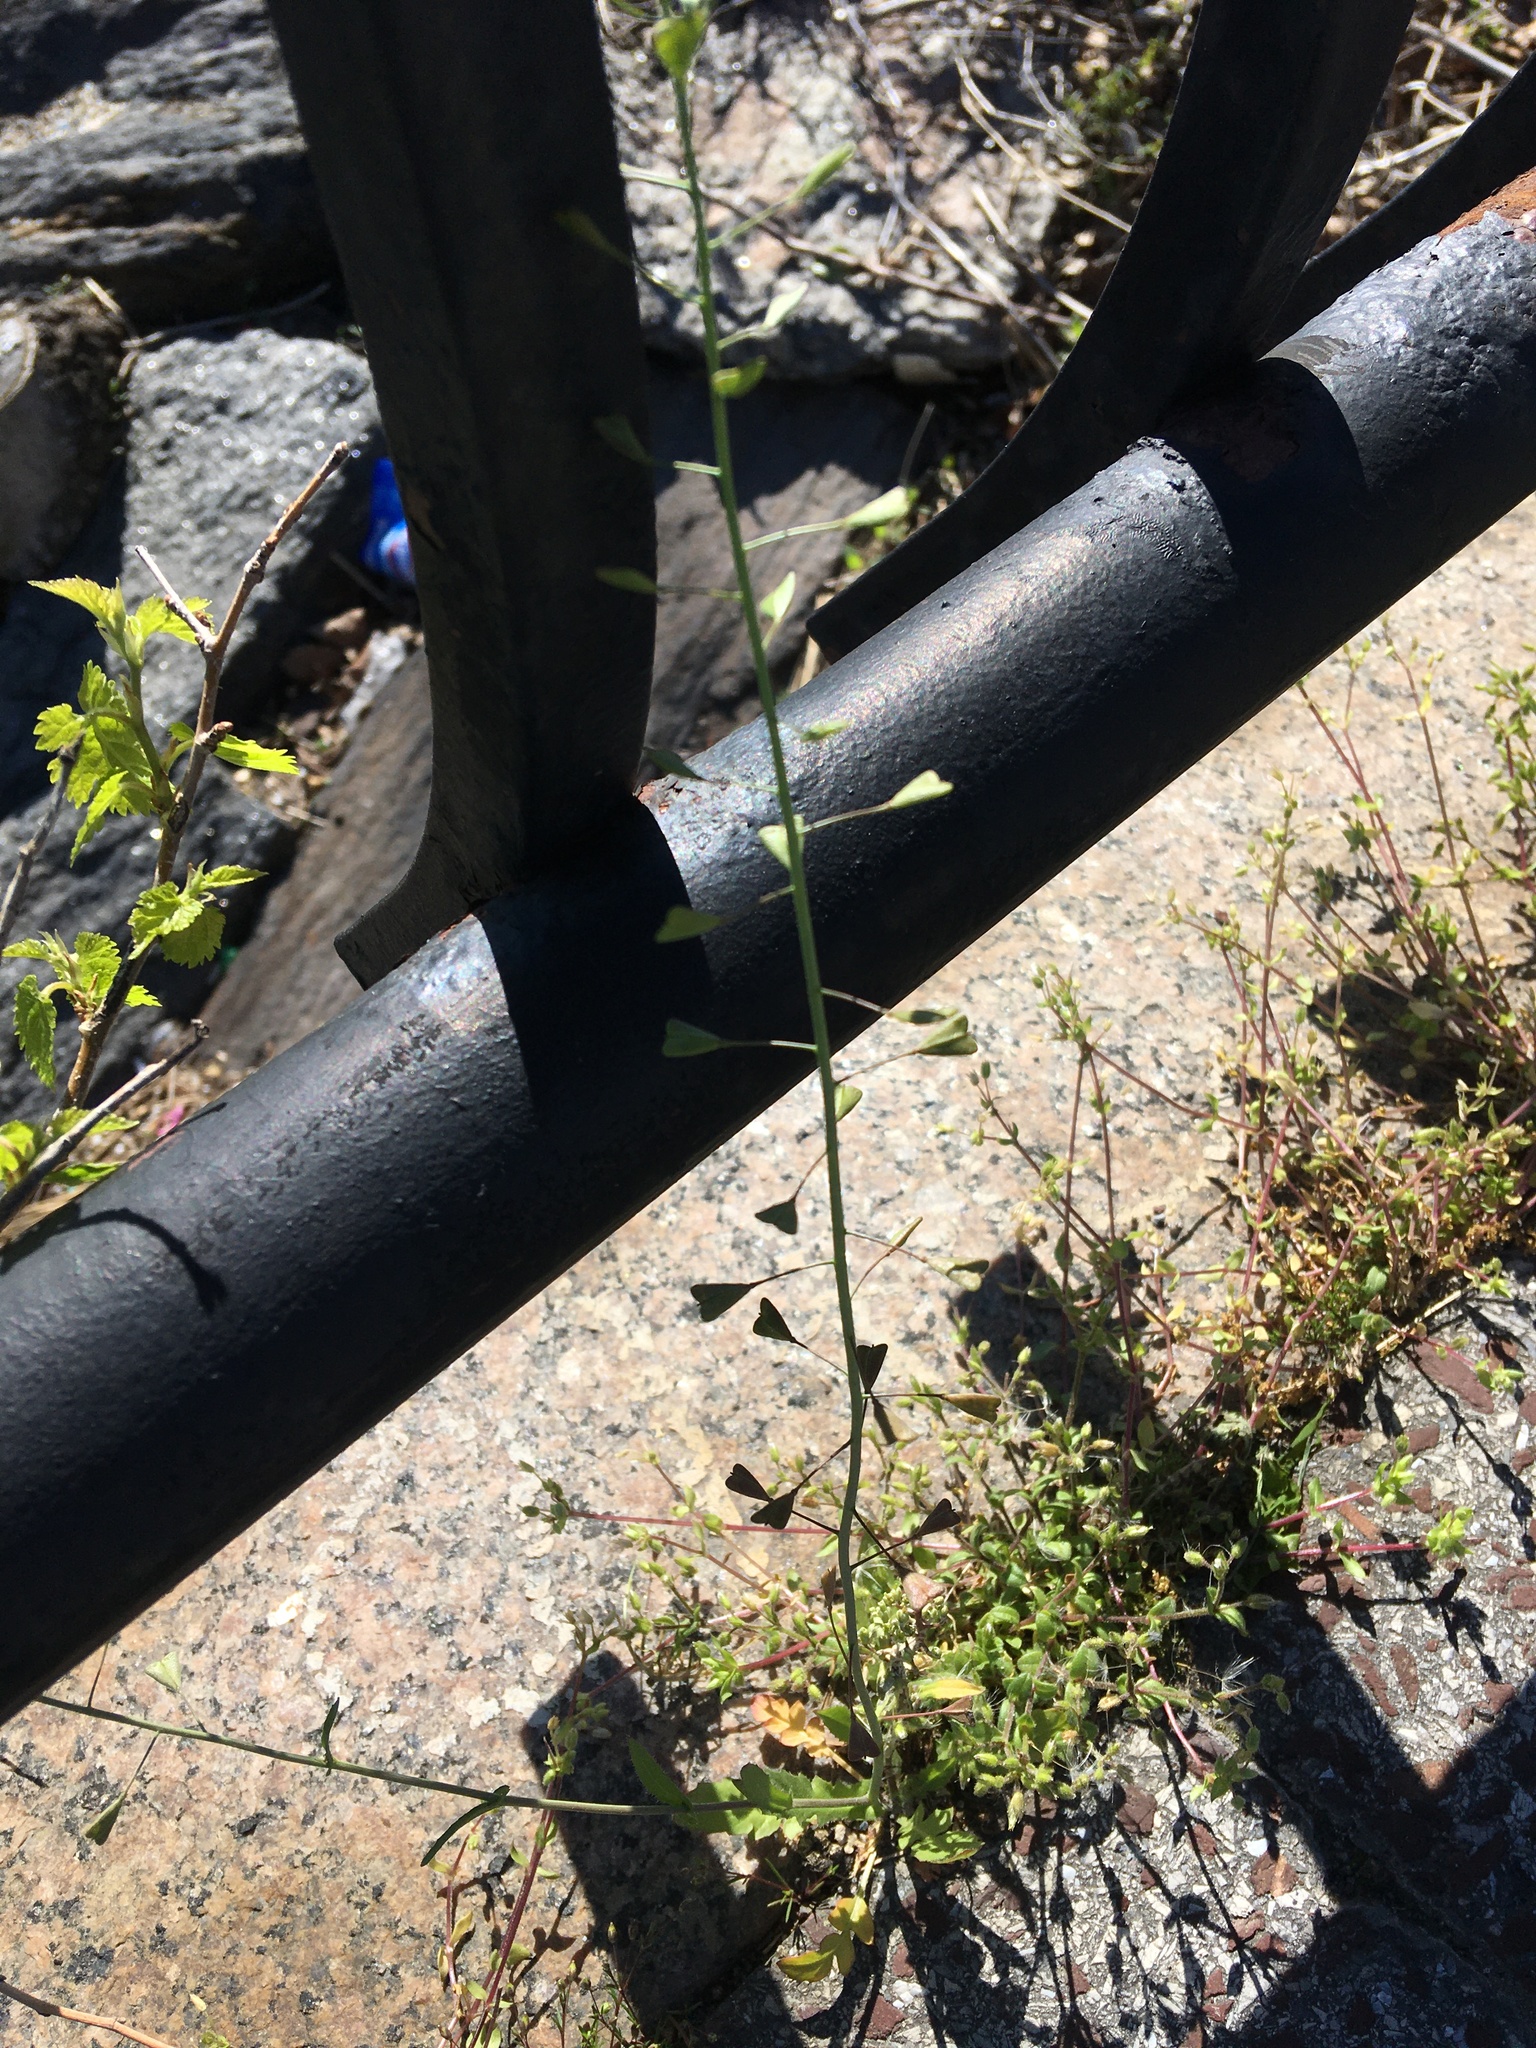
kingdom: Plantae
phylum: Tracheophyta
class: Magnoliopsida
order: Brassicales
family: Brassicaceae
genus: Capsella
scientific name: Capsella bursa-pastoris
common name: Shepherd's purse
